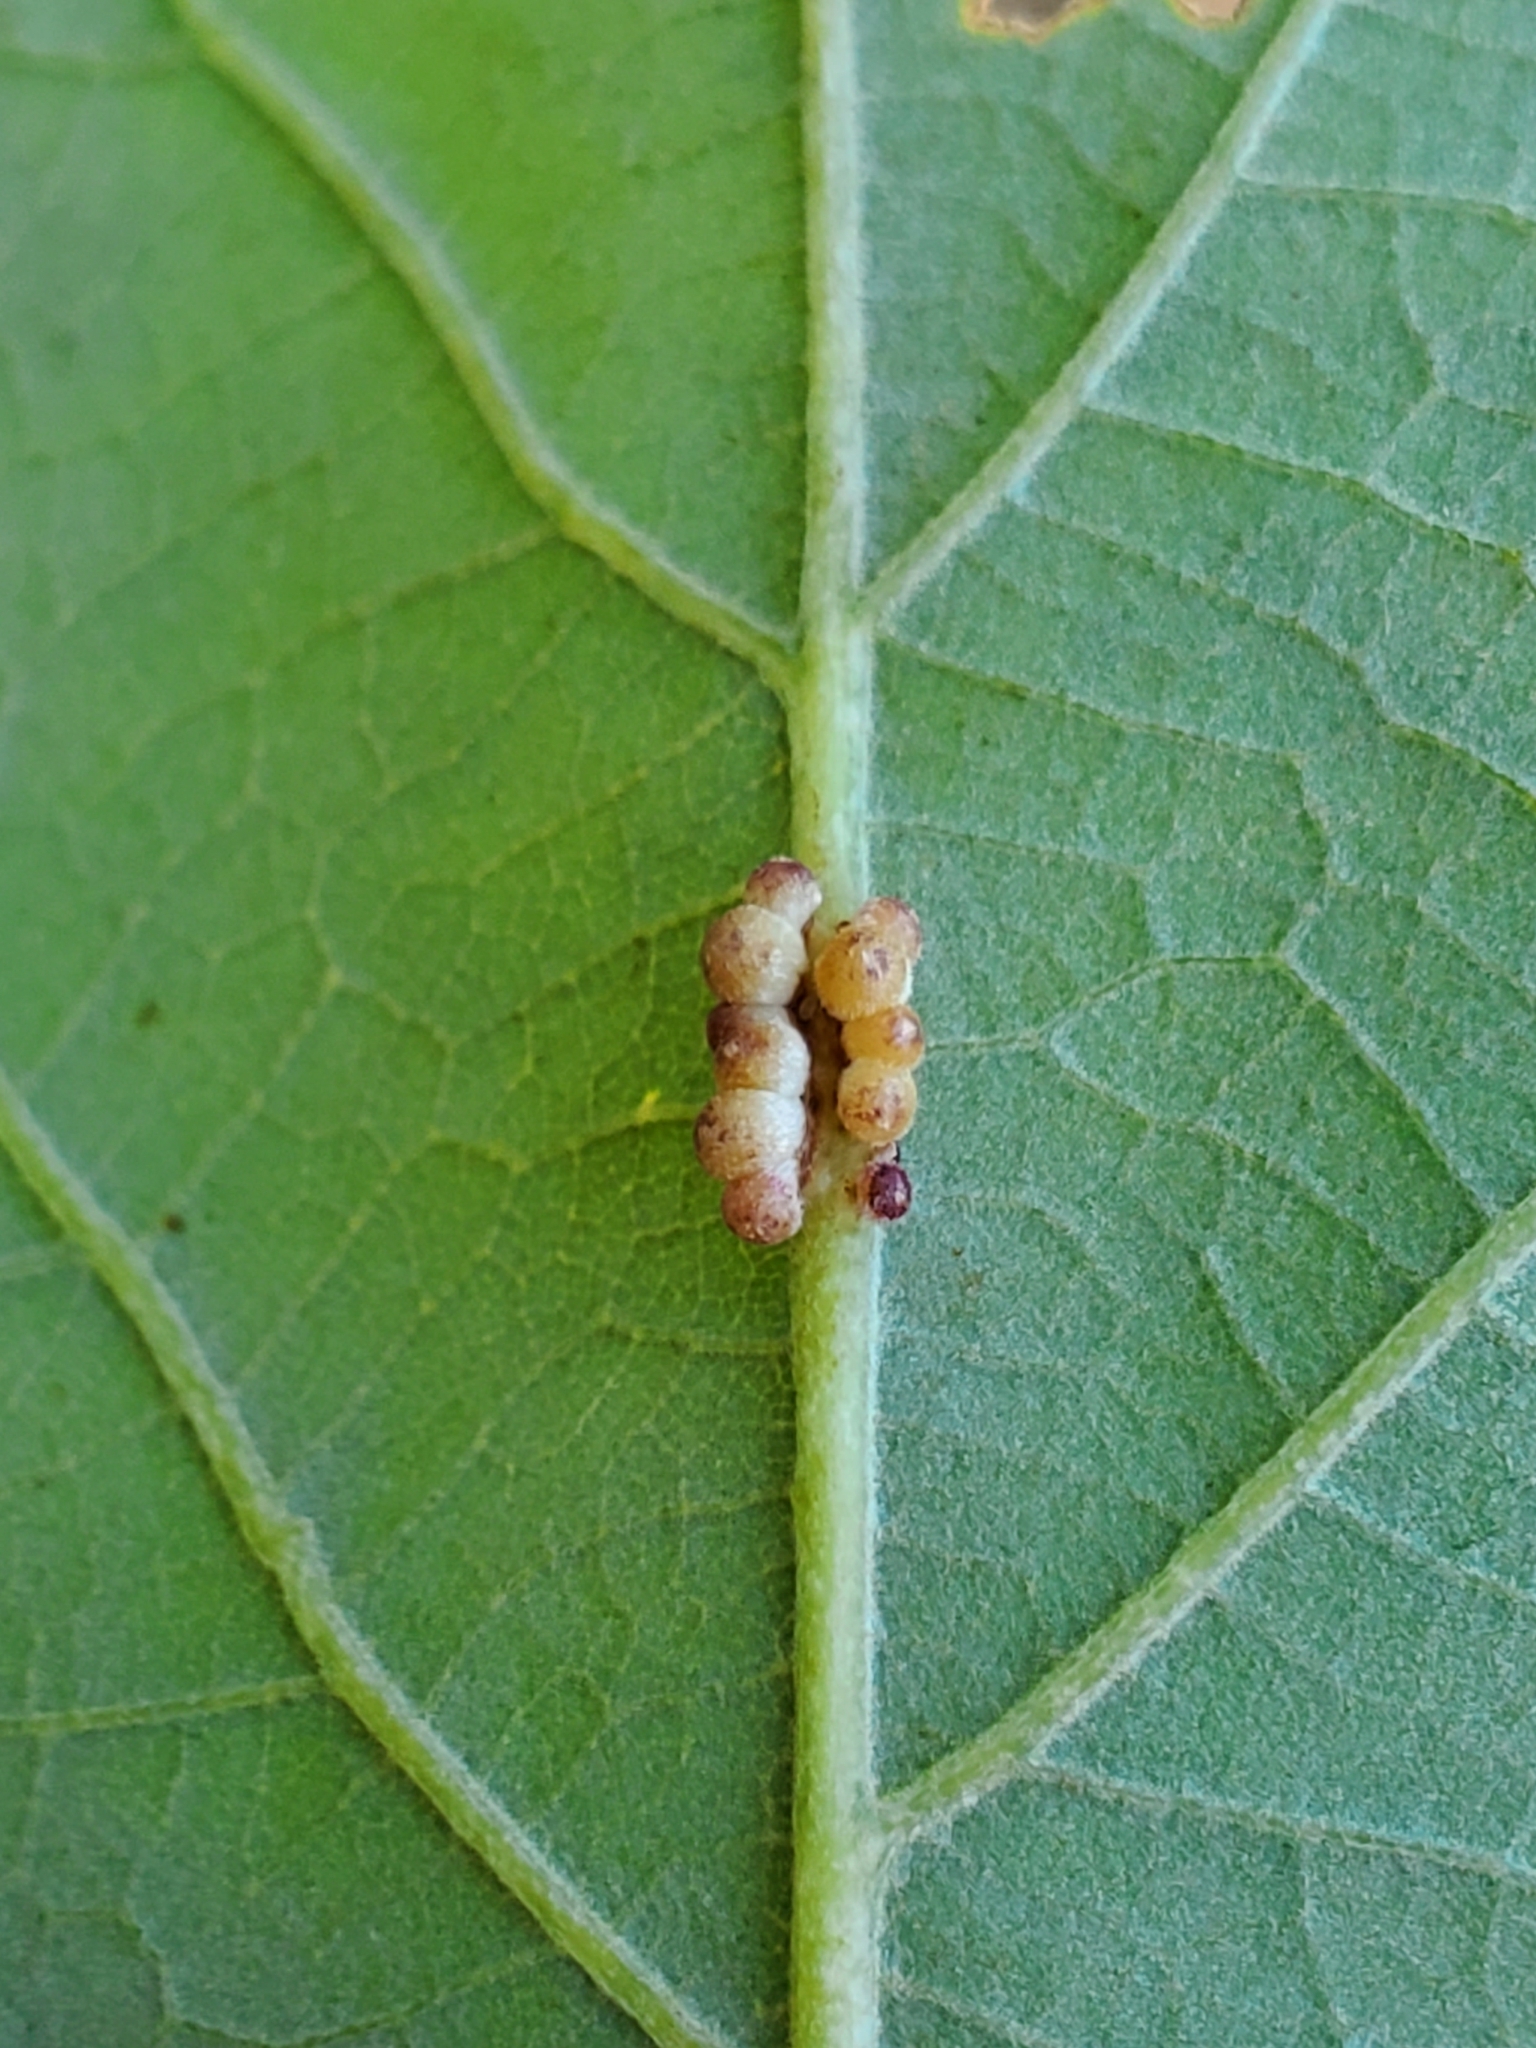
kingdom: Animalia
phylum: Arthropoda
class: Insecta
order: Hymenoptera
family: Cynipidae
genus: Andricus
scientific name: Andricus
